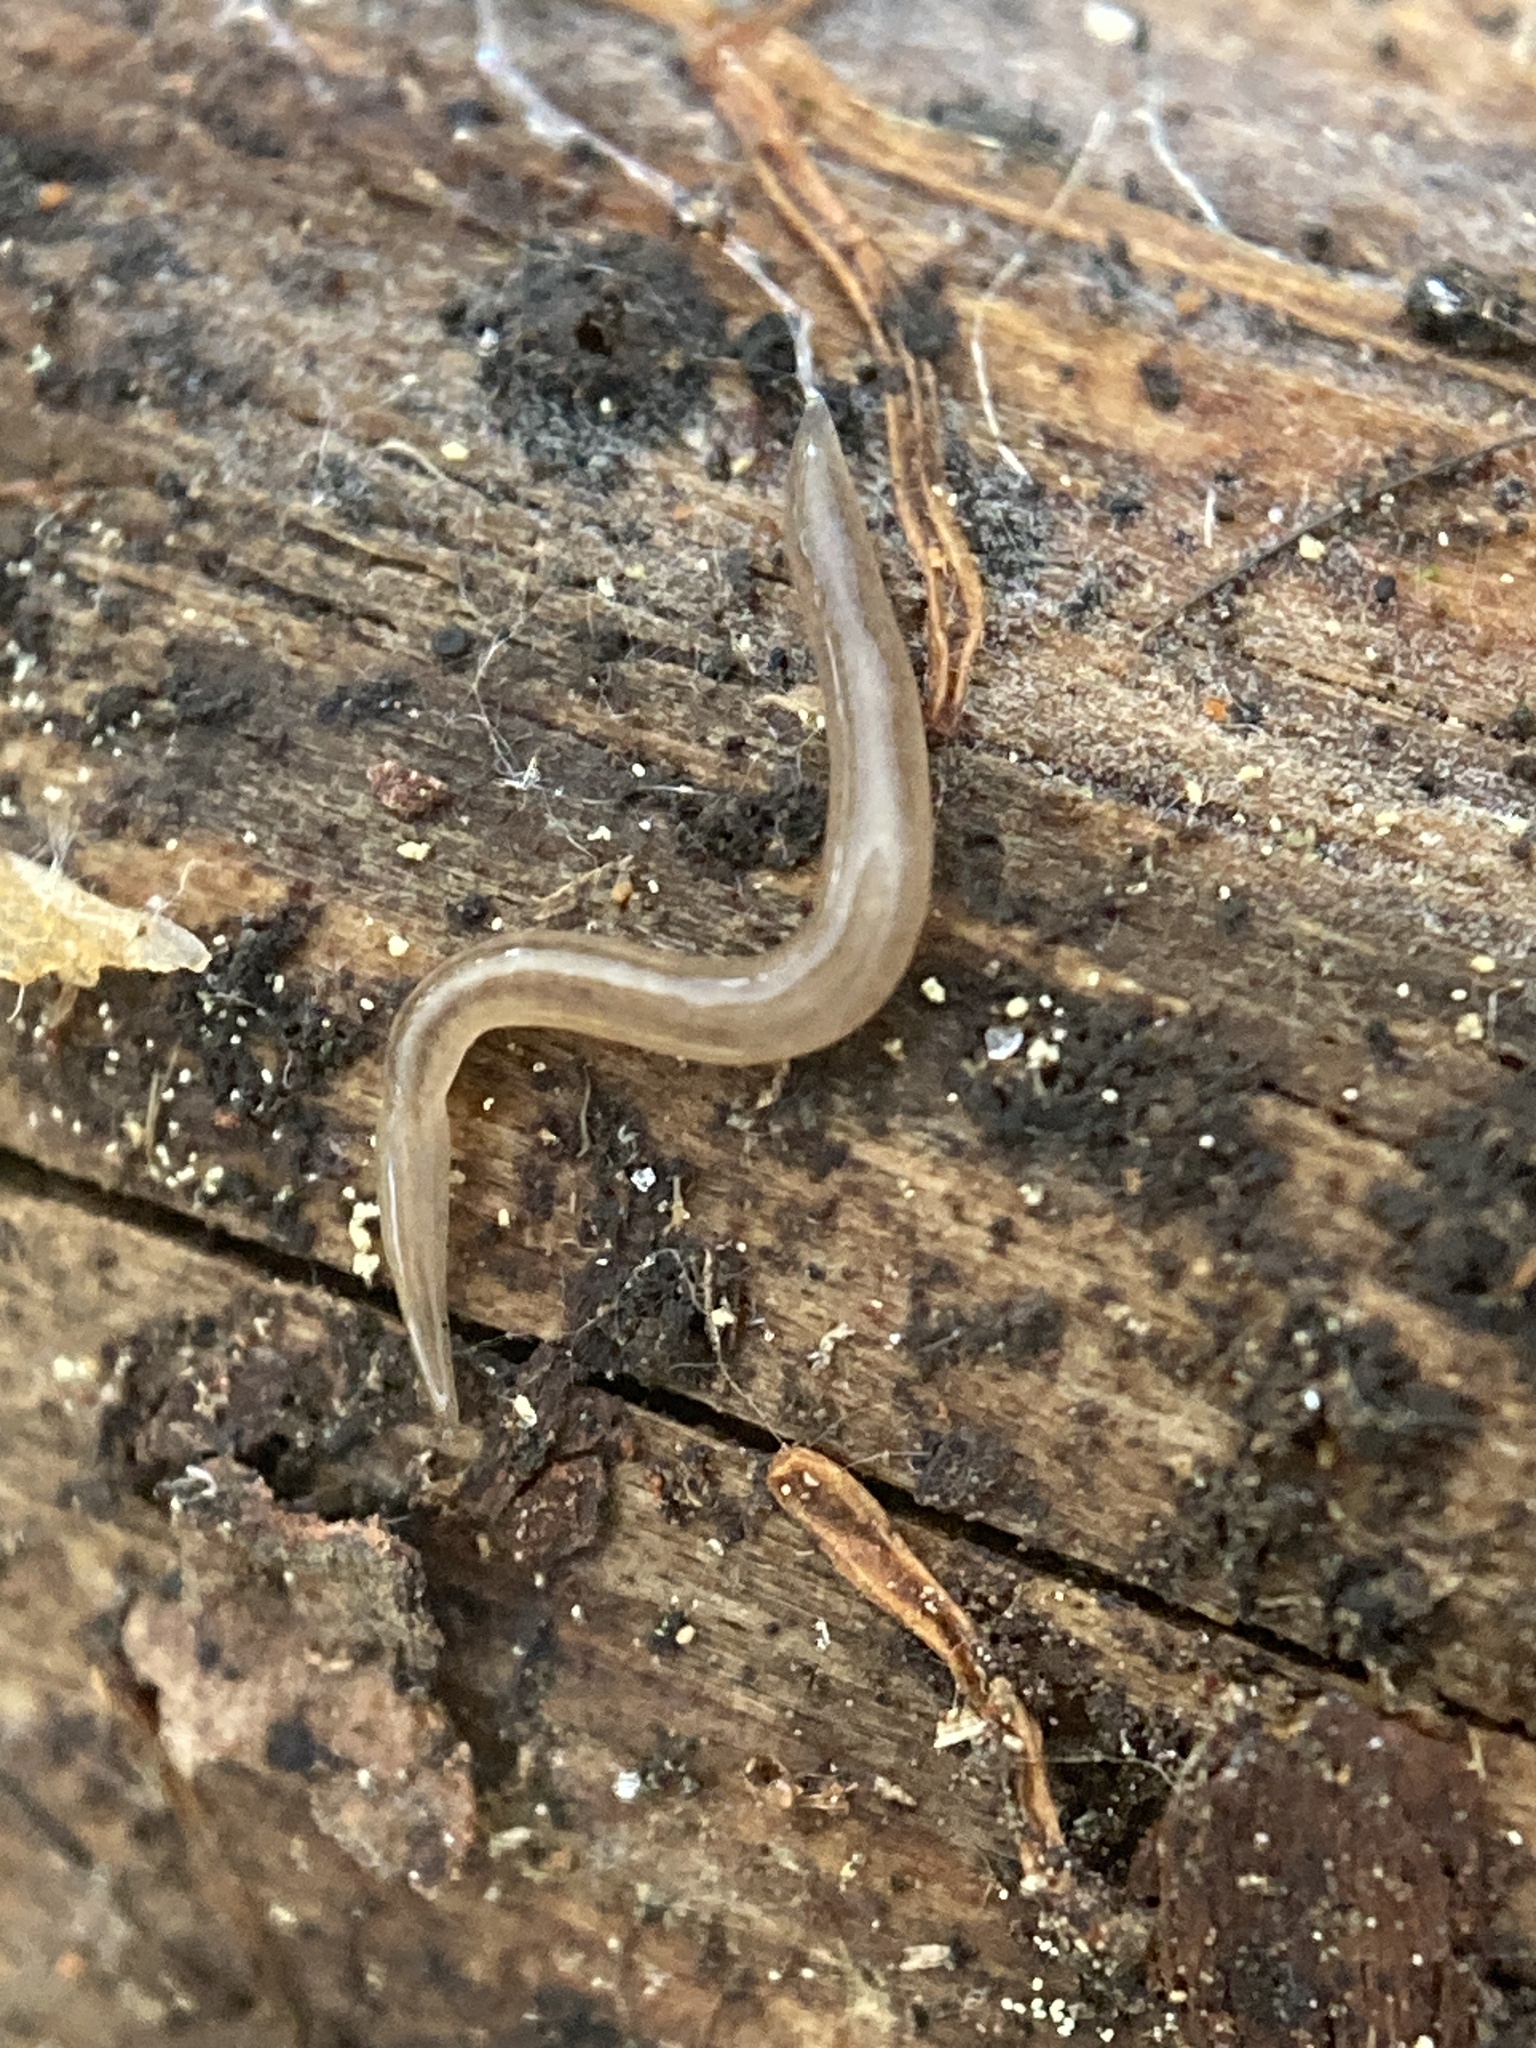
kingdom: Animalia
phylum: Platyhelminthes
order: Tricladida
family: Geoplanidae
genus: Rhynchodemus
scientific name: Rhynchodemus sylvaticus
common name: A flatworm
